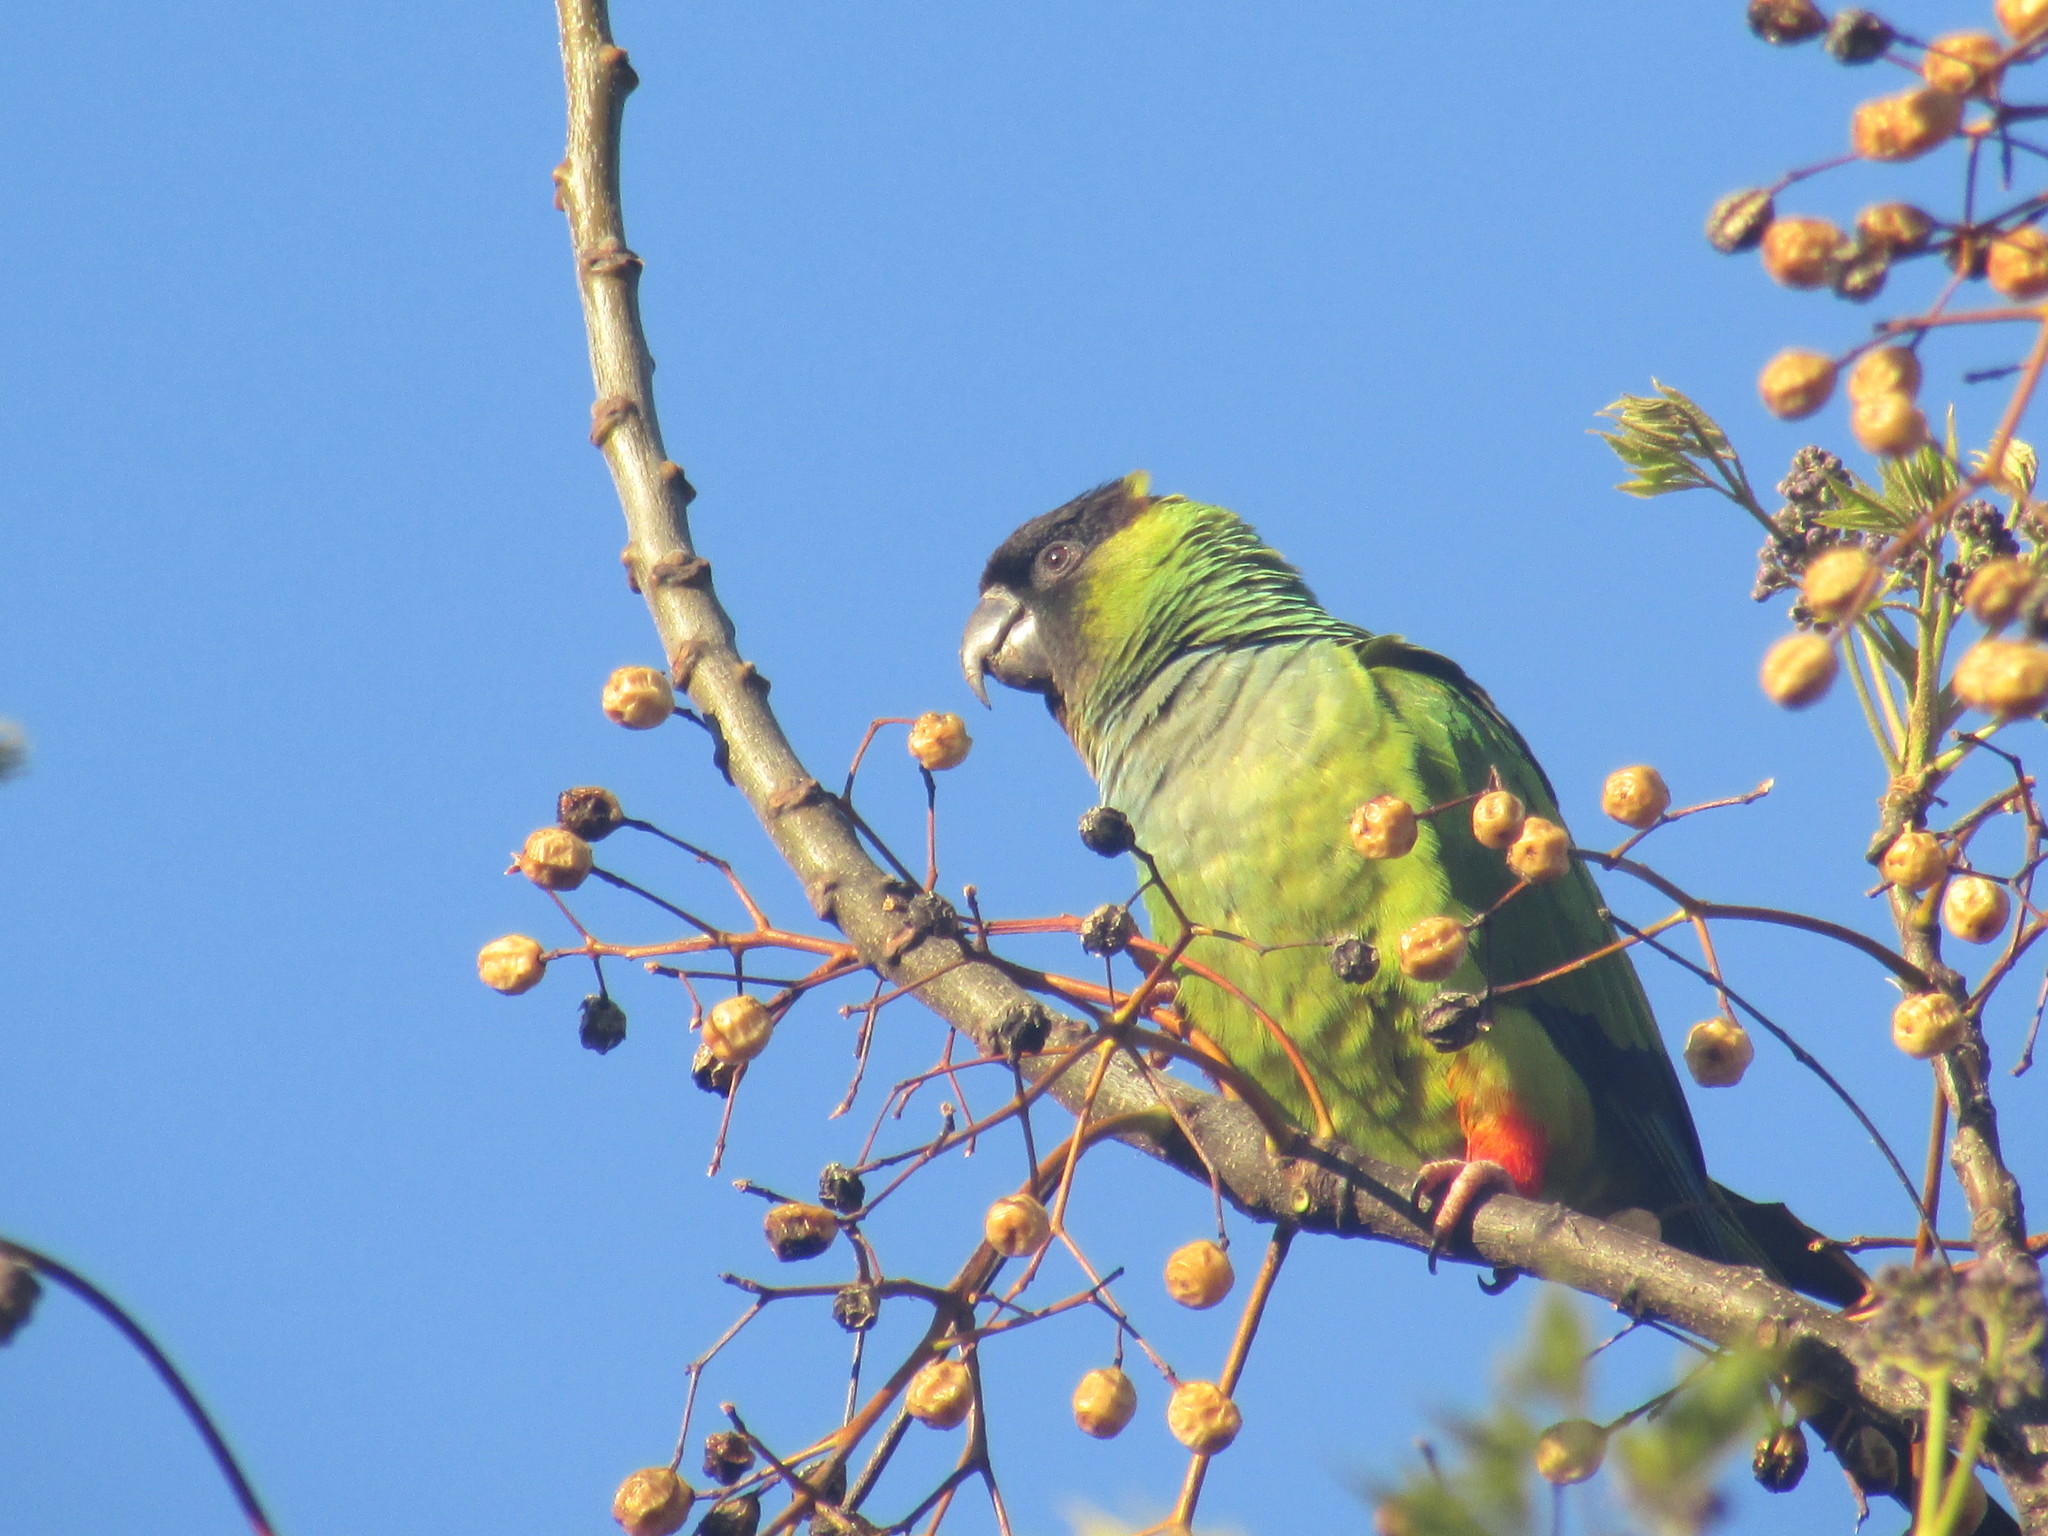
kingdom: Animalia
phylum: Chordata
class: Aves
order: Psittaciformes
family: Psittacidae
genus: Nandayus
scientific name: Nandayus nenday
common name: Nanday parakeet
